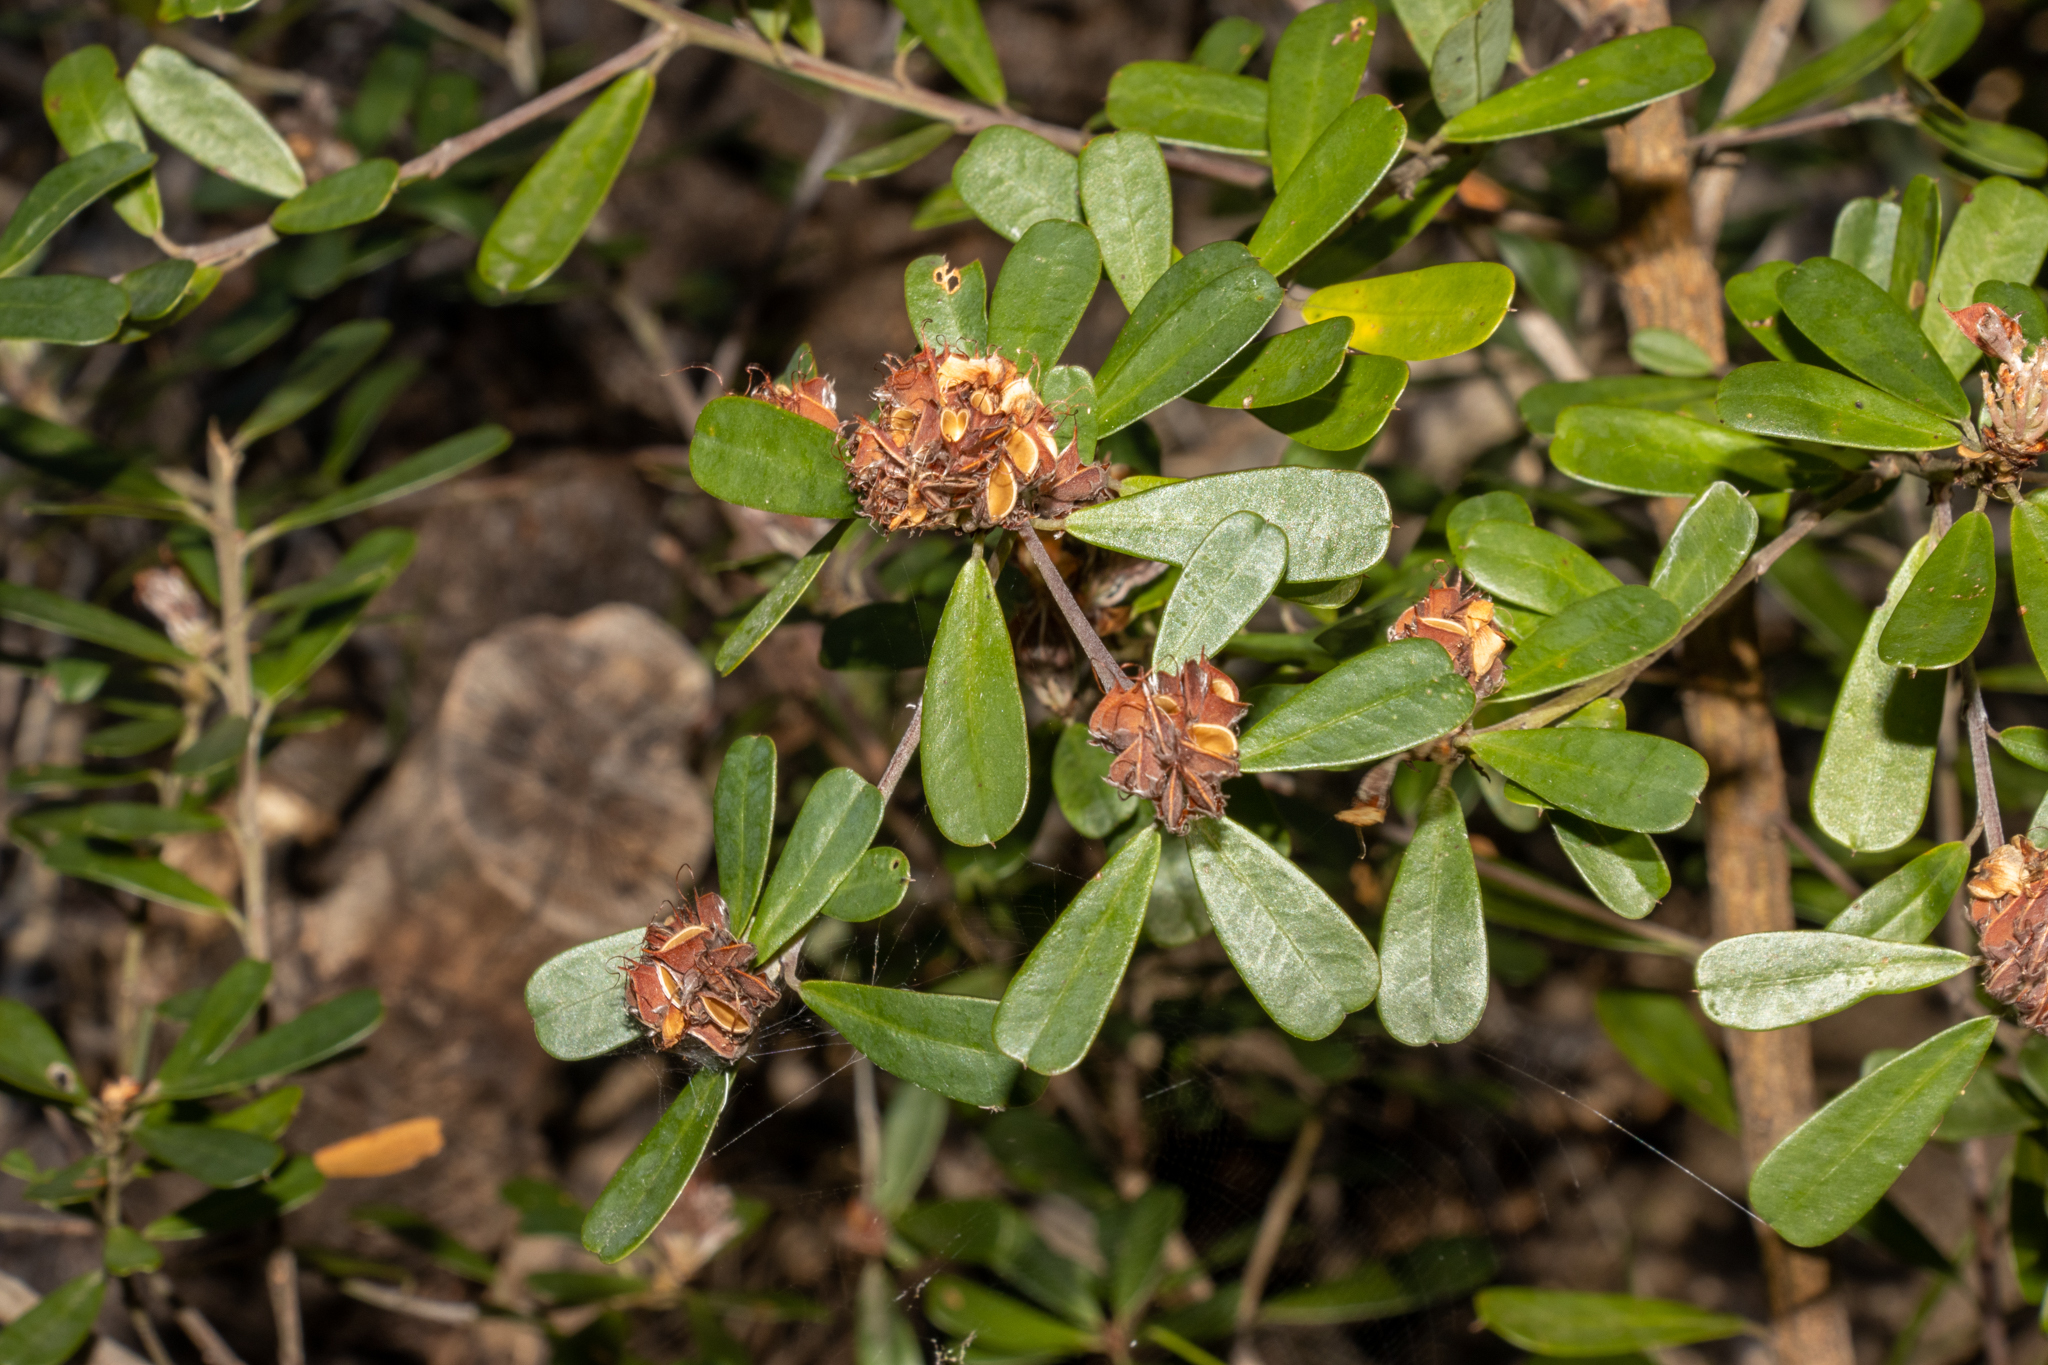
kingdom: Plantae
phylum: Tracheophyta
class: Magnoliopsida
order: Fabales
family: Fabaceae
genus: Pultenaea
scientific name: Pultenaea daphnoides
